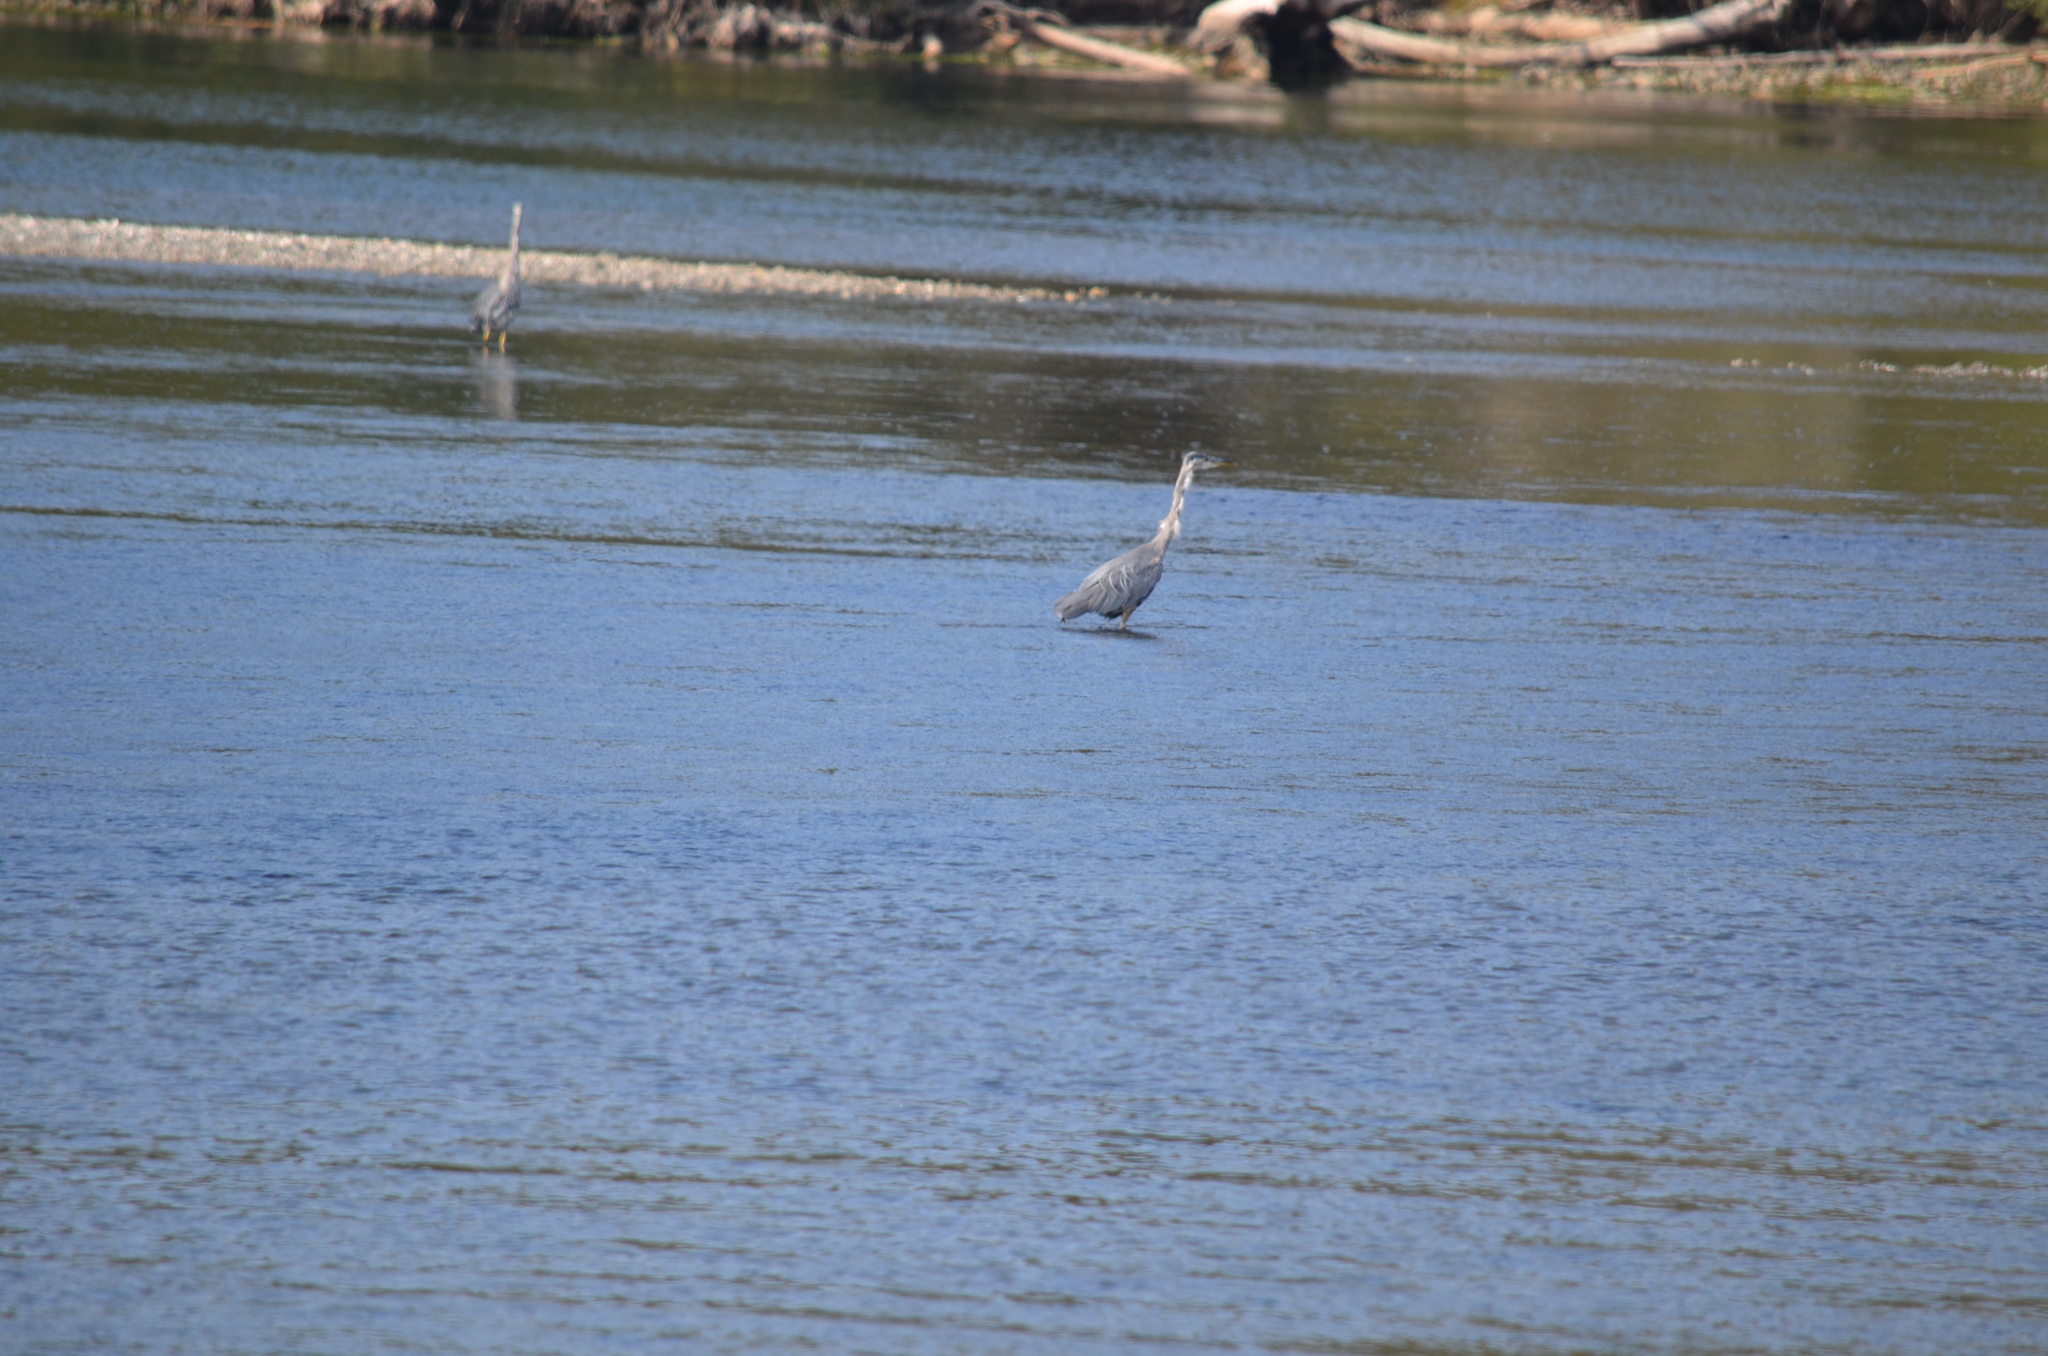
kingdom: Animalia
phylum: Chordata
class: Aves
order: Pelecaniformes
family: Ardeidae
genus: Ardea
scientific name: Ardea herodias
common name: Great blue heron
